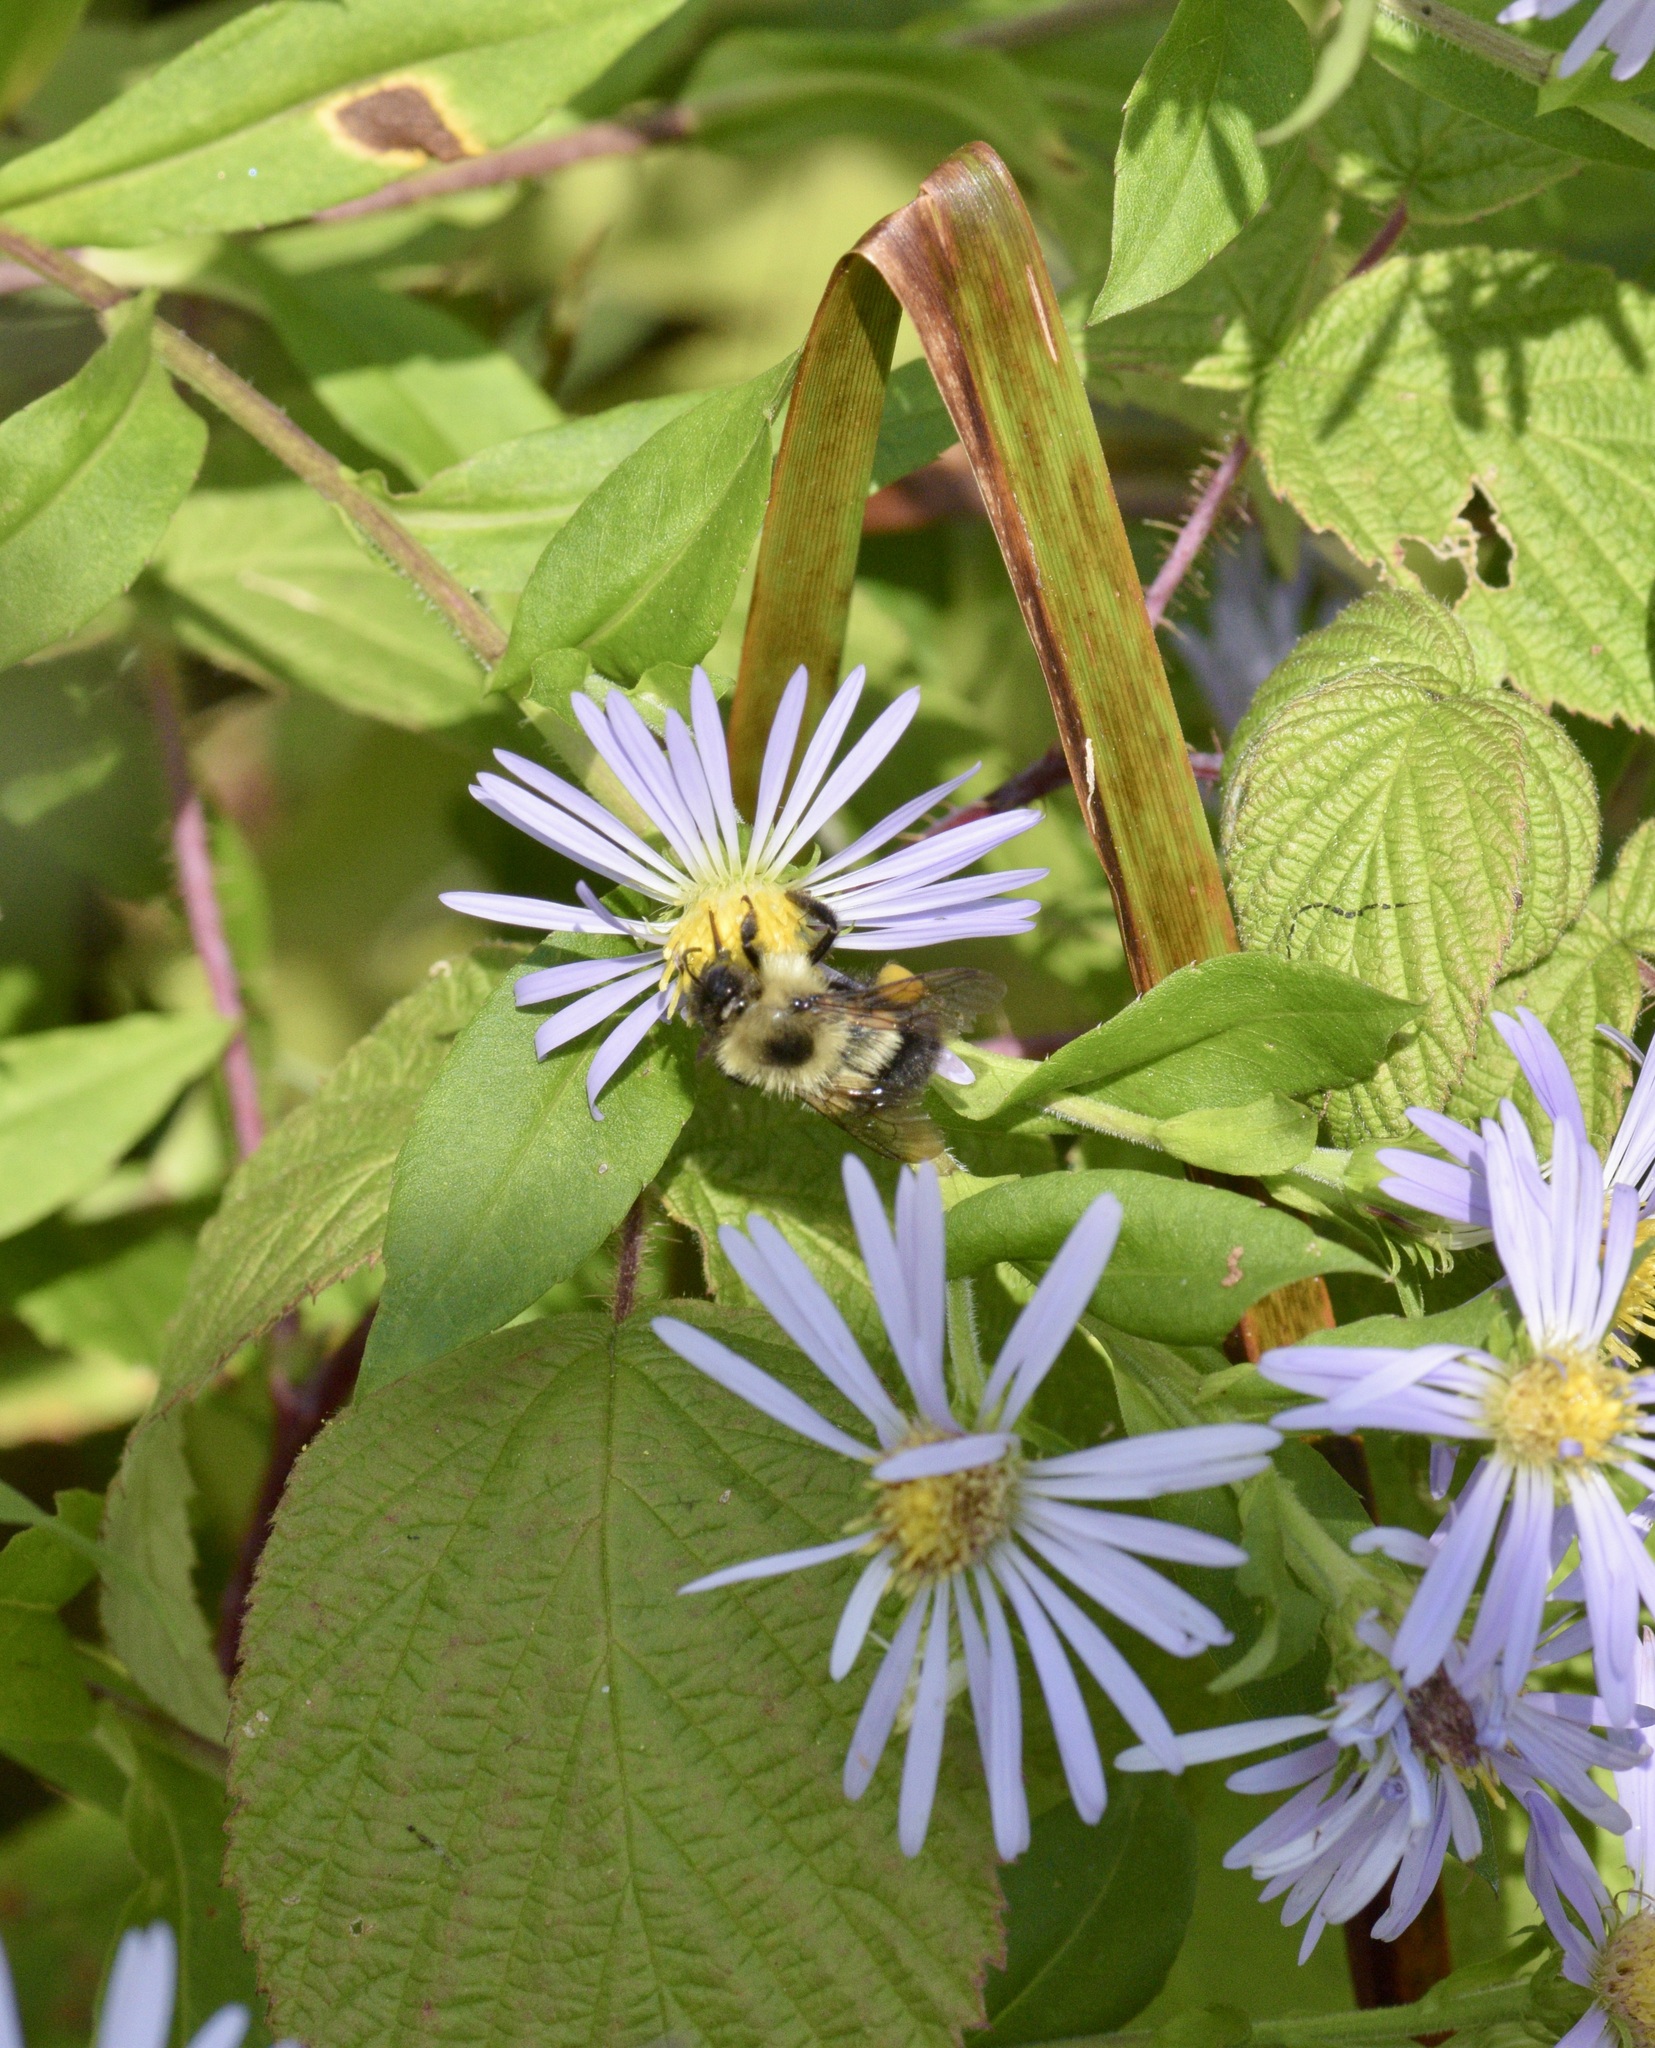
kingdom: Animalia
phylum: Arthropoda
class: Insecta
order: Hymenoptera
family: Apidae
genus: Pyrobombus
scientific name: Pyrobombus
